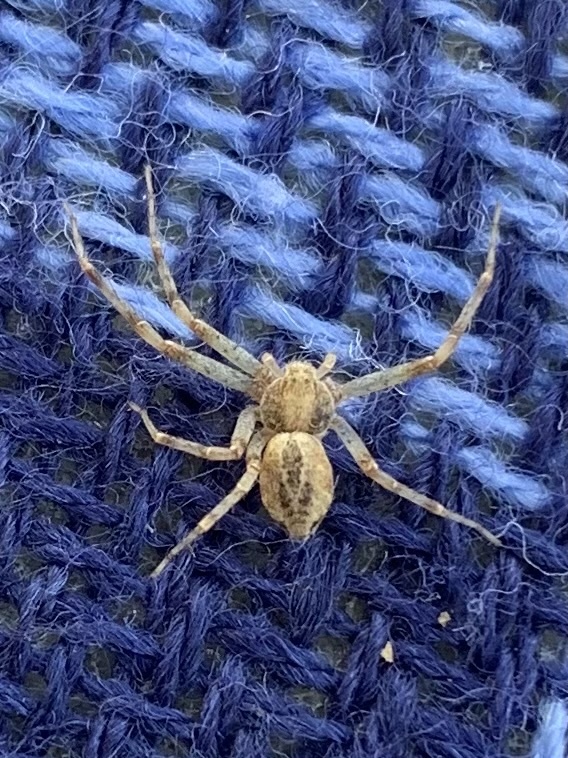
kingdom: Animalia
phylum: Arthropoda
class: Arachnida
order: Araneae
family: Philodromidae
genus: Philodromus
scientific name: Philodromus
